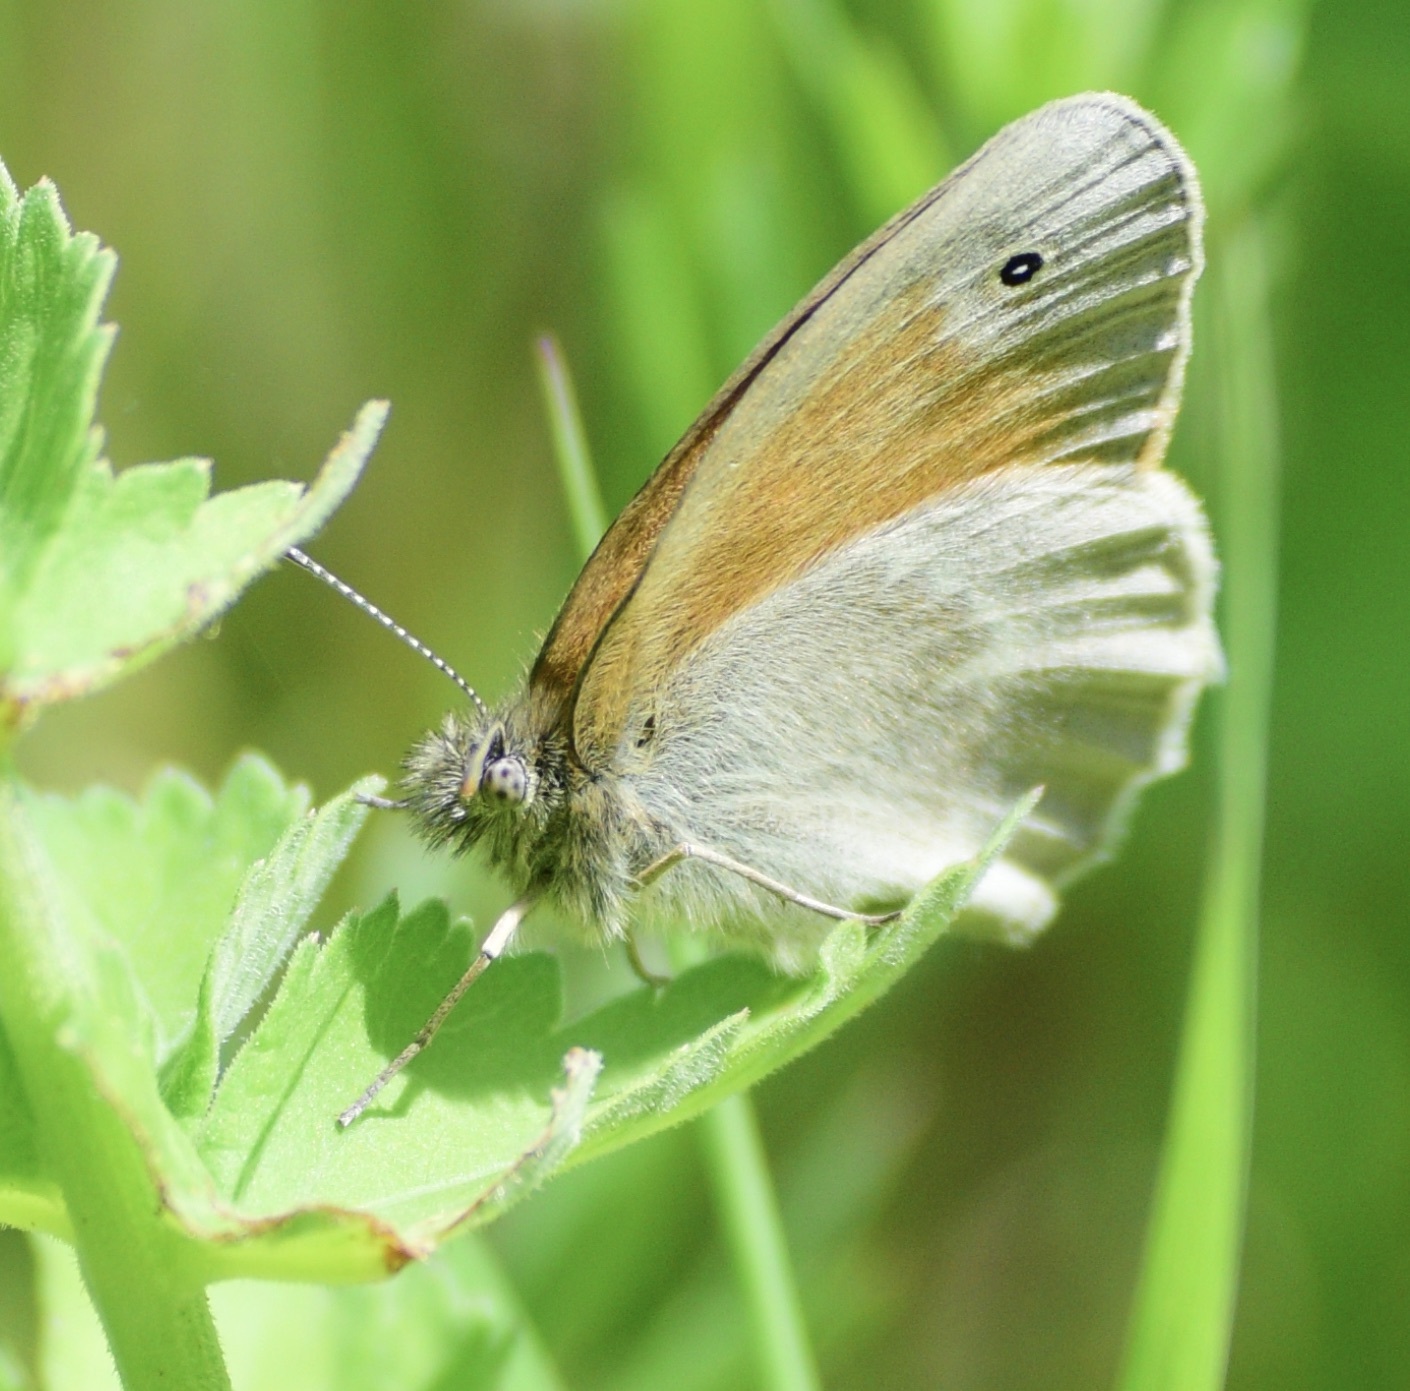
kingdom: Animalia
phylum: Arthropoda
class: Insecta
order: Lepidoptera
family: Nymphalidae
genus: Coenonympha
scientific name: Coenonympha california
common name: Common ringlet
